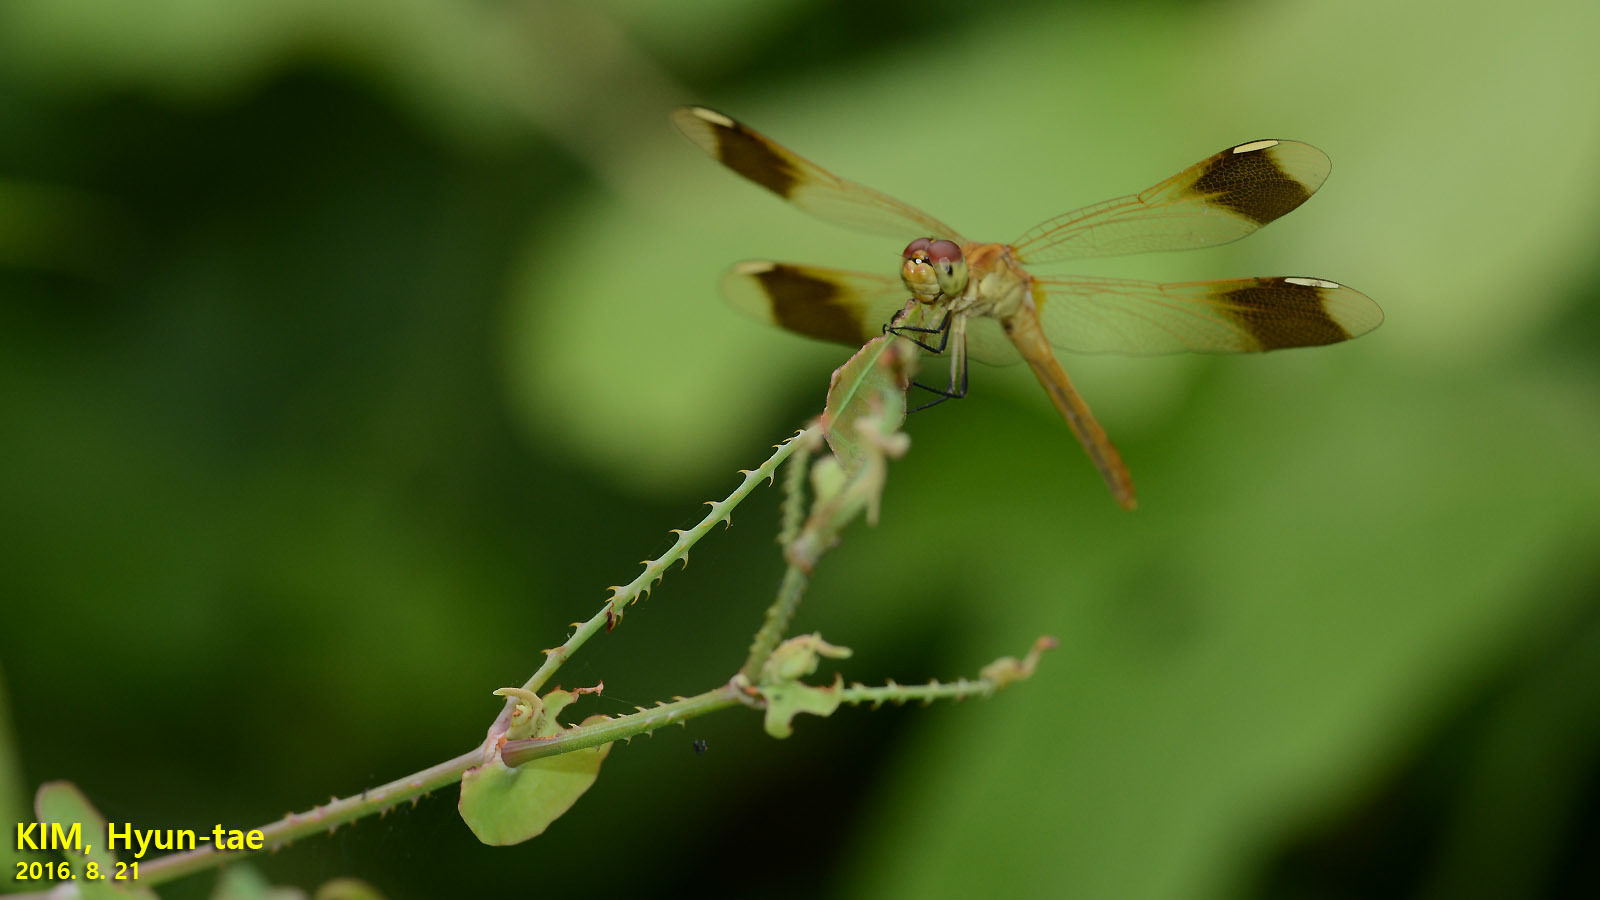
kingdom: Animalia
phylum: Arthropoda
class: Insecta
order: Odonata
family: Libellulidae
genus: Sympetrum
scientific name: Sympetrum pedemontanum
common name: Banded darter
